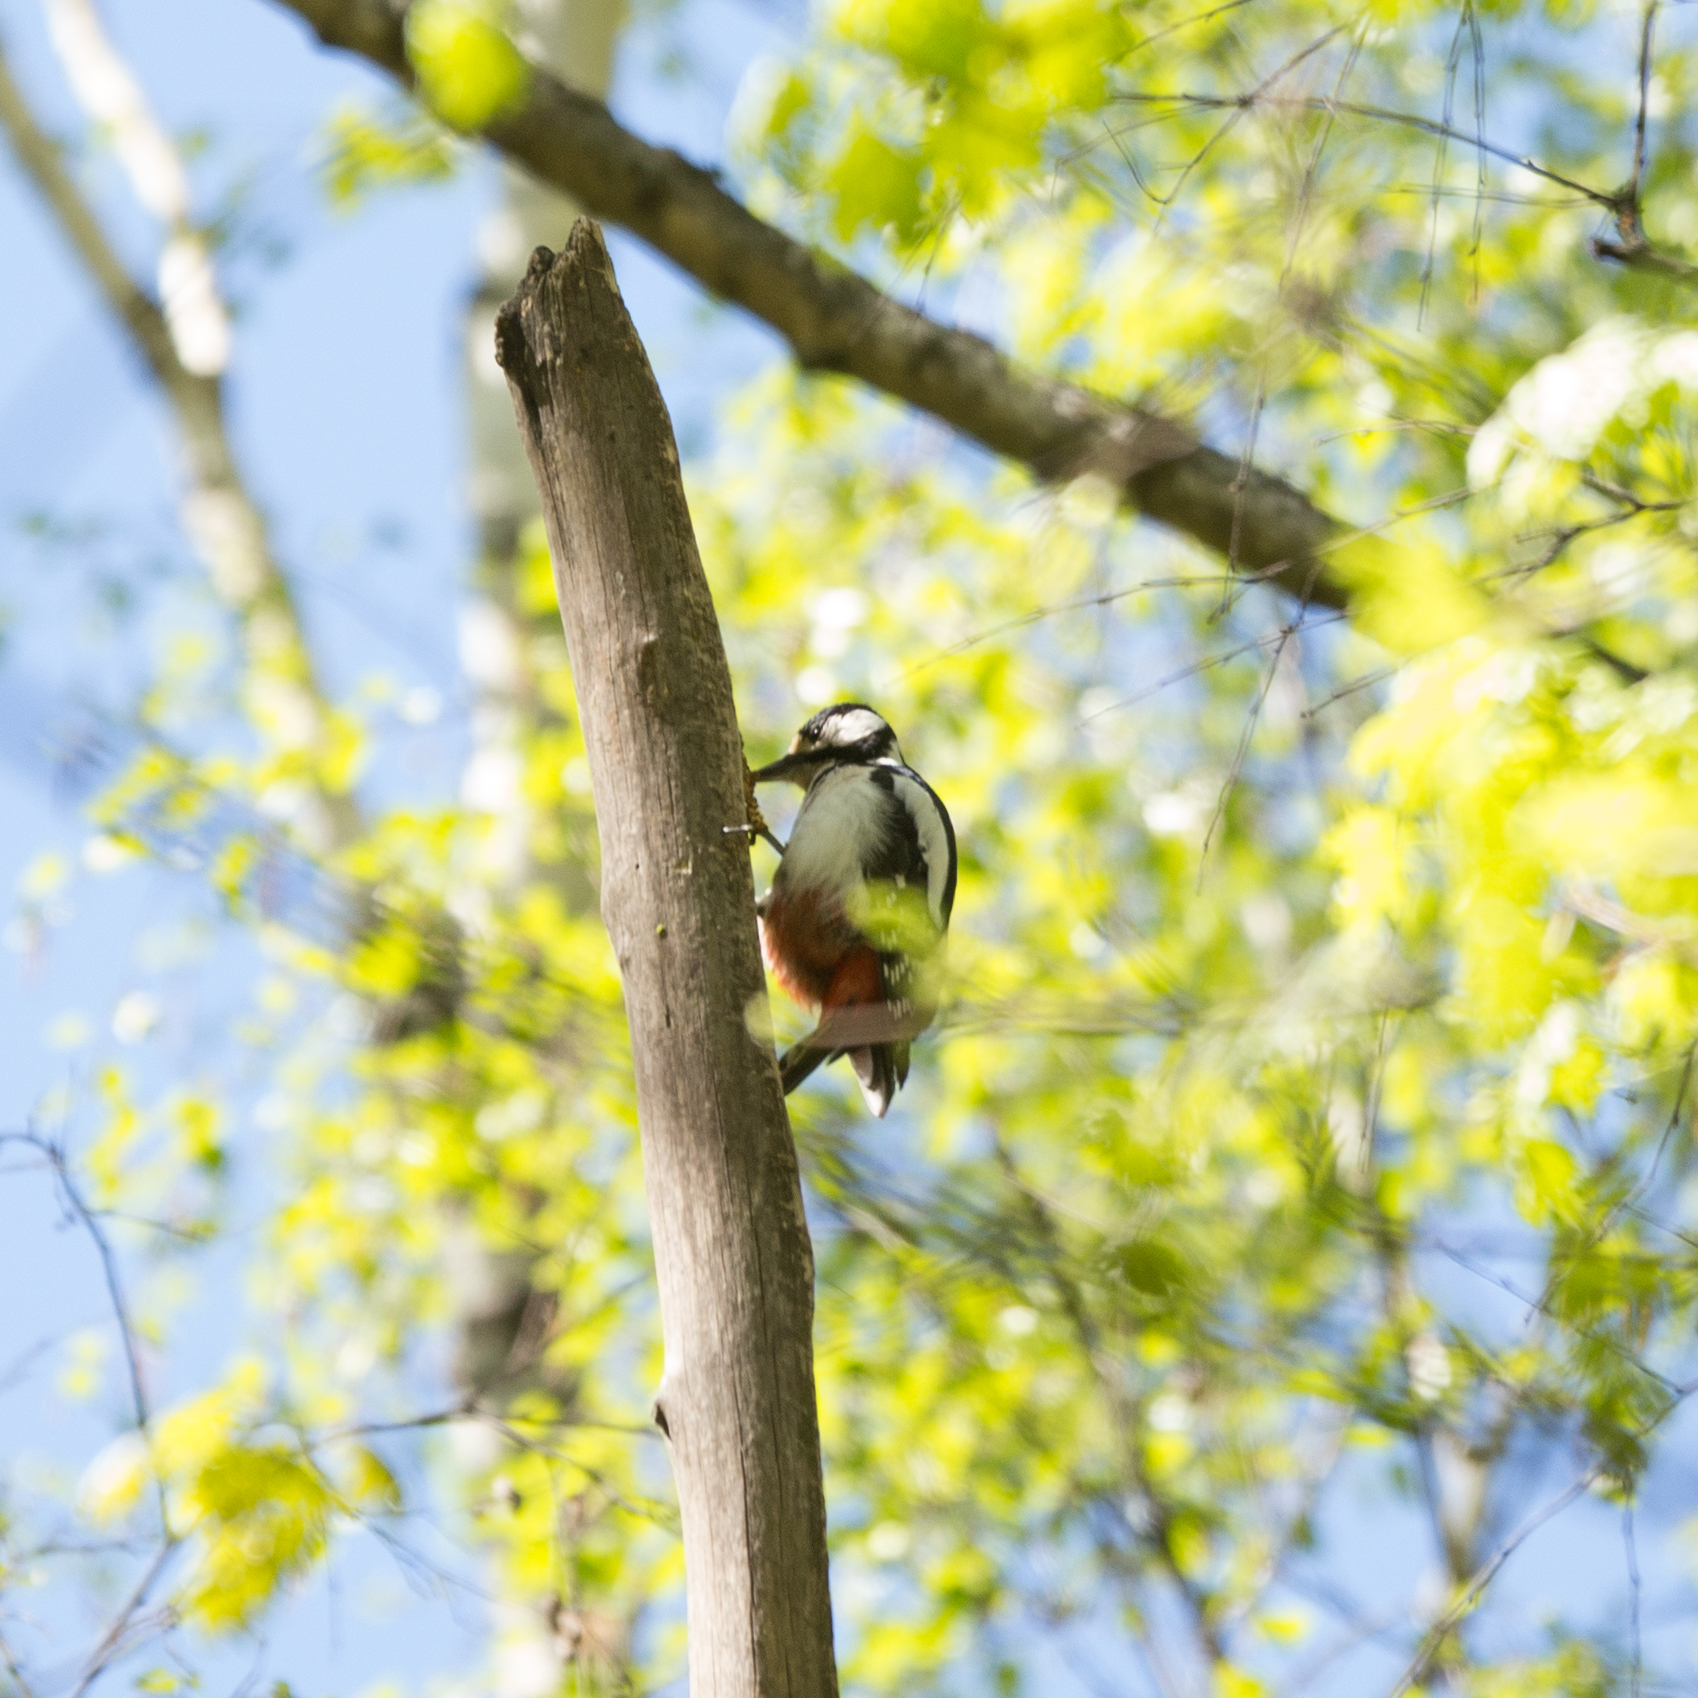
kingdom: Animalia
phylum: Chordata
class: Aves
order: Piciformes
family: Picidae
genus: Dendrocopos
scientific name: Dendrocopos major
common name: Great spotted woodpecker
